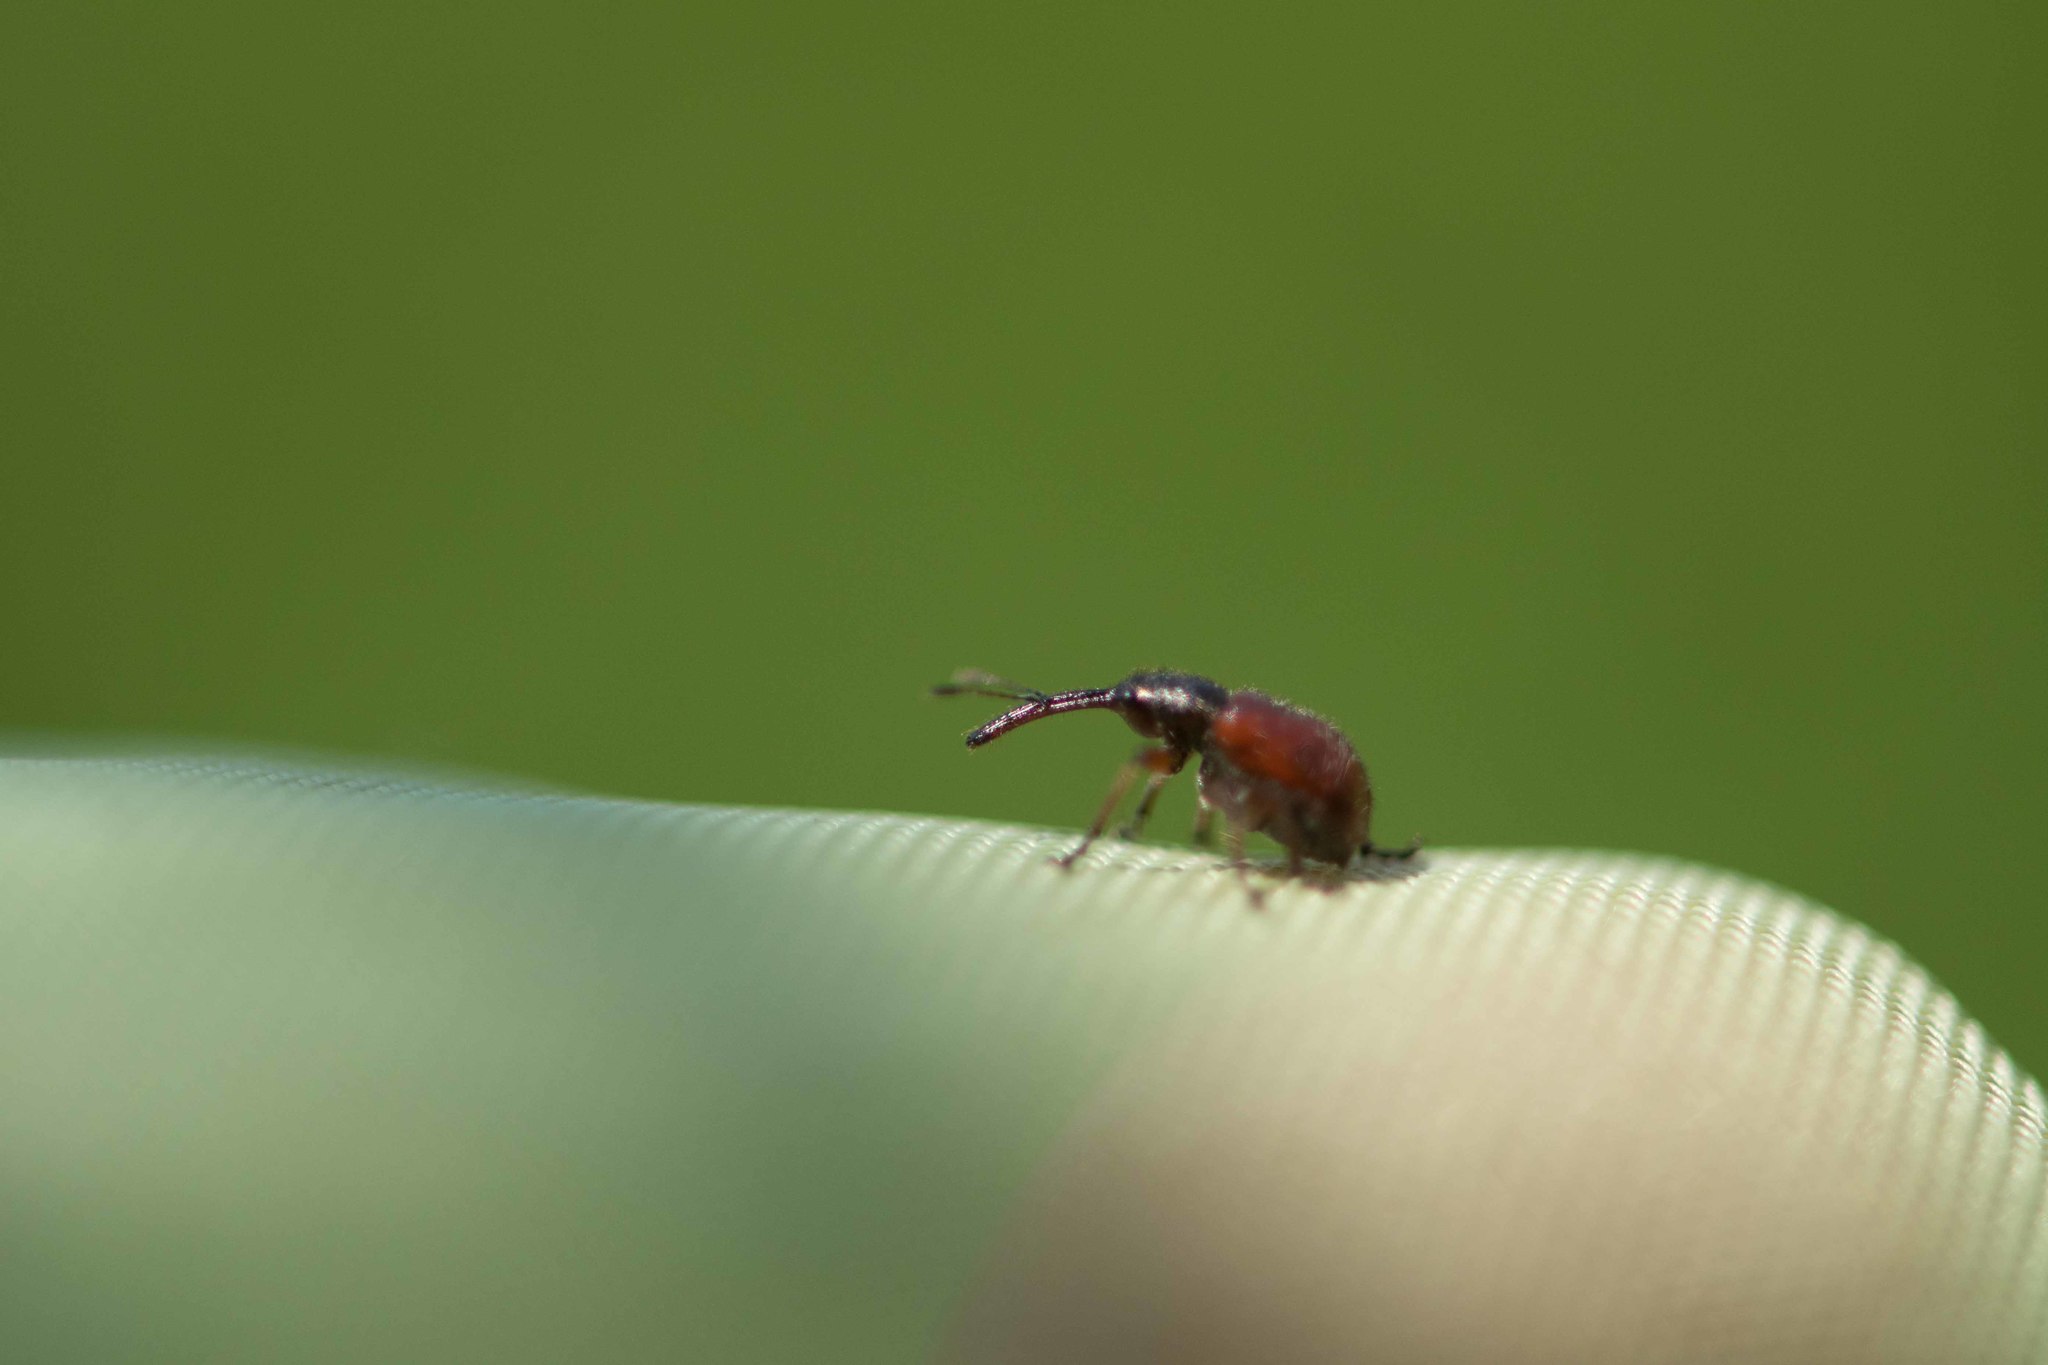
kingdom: Animalia
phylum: Arthropoda
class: Insecta
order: Coleoptera
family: Rhynchitidae
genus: Tatianaerhynchites
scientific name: Tatianaerhynchites aequatus
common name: Apple fruit rhynchites
